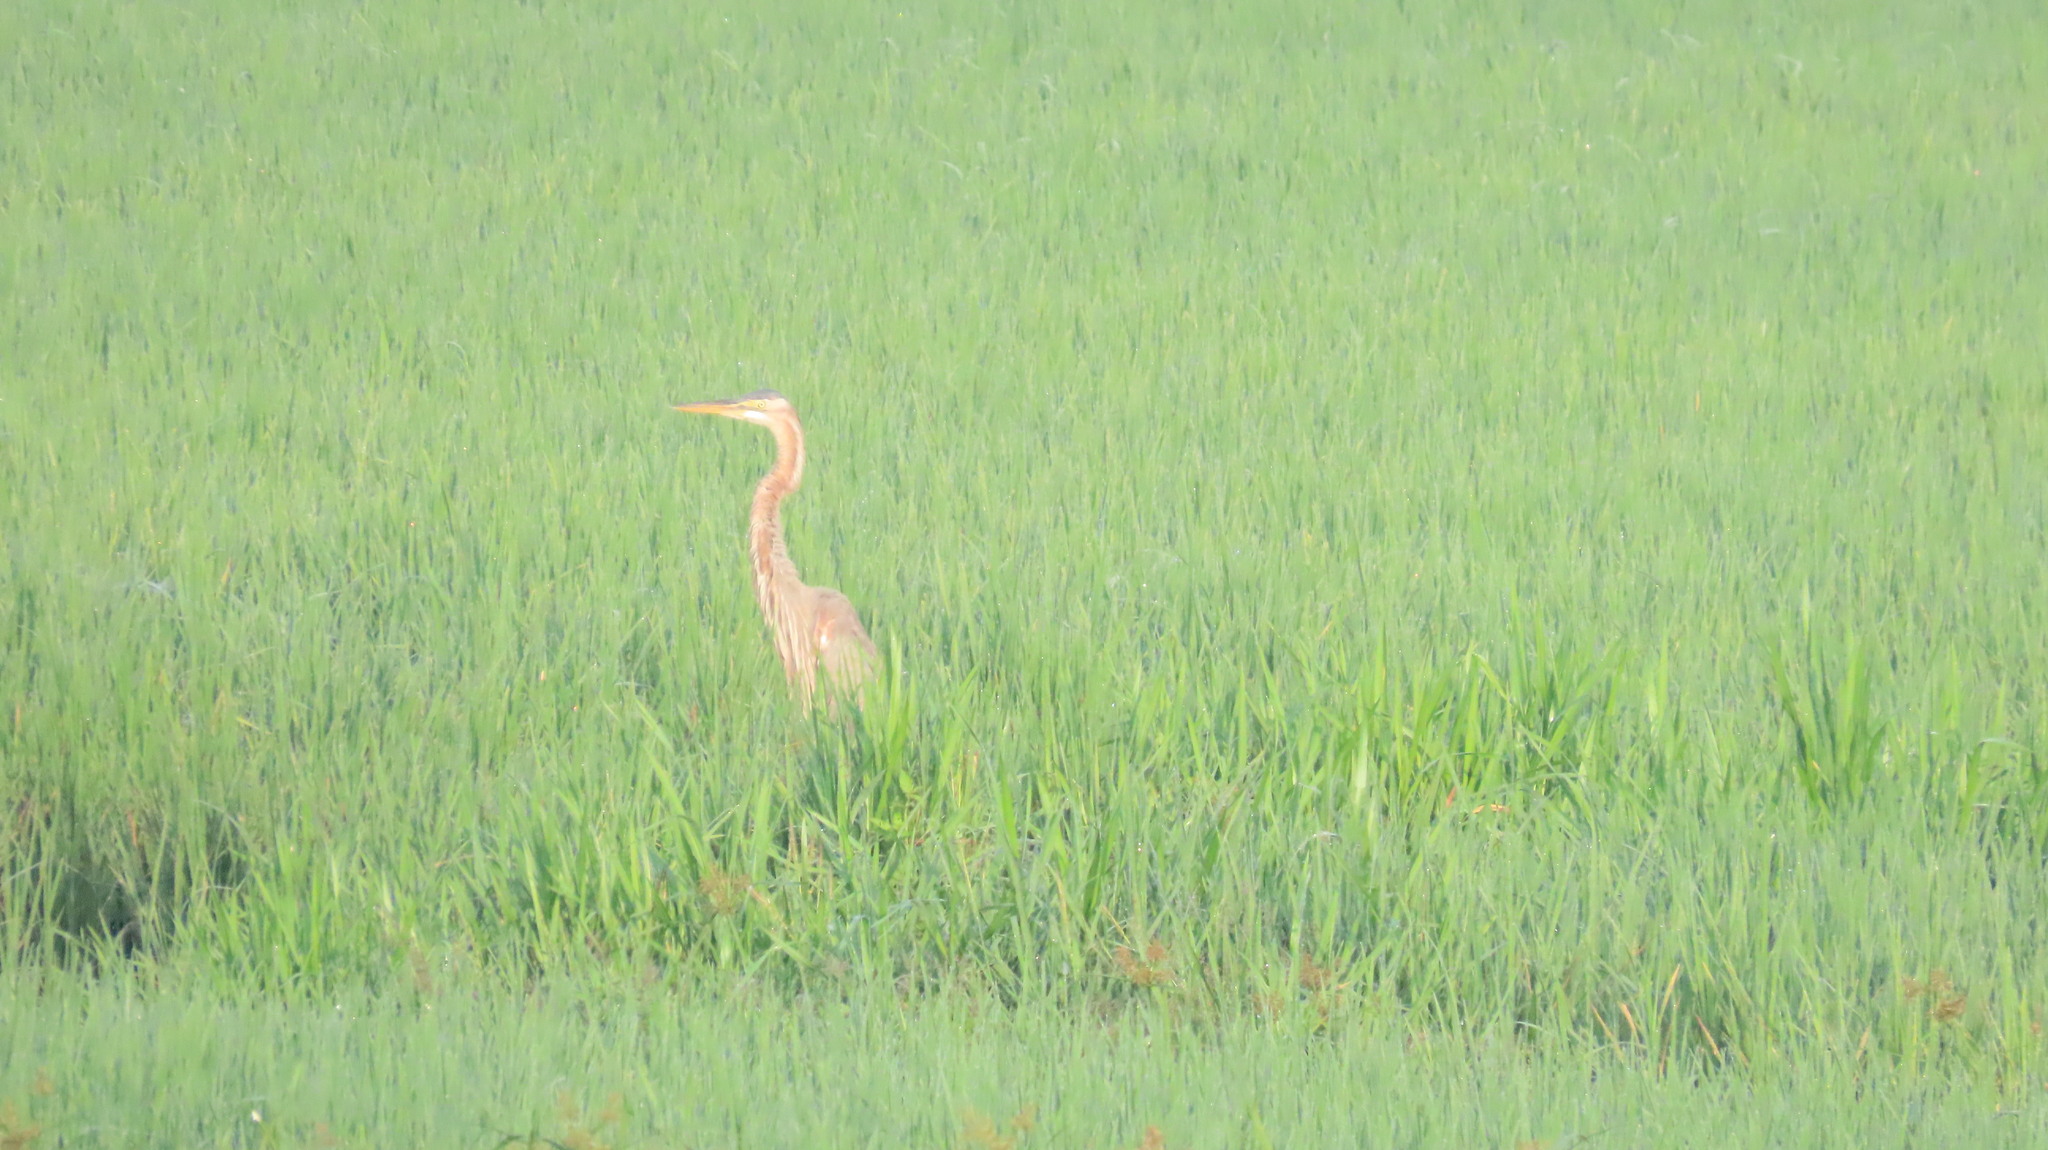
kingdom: Animalia
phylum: Chordata
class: Aves
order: Pelecaniformes
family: Ardeidae
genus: Ardea
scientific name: Ardea purpurea
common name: Purple heron
